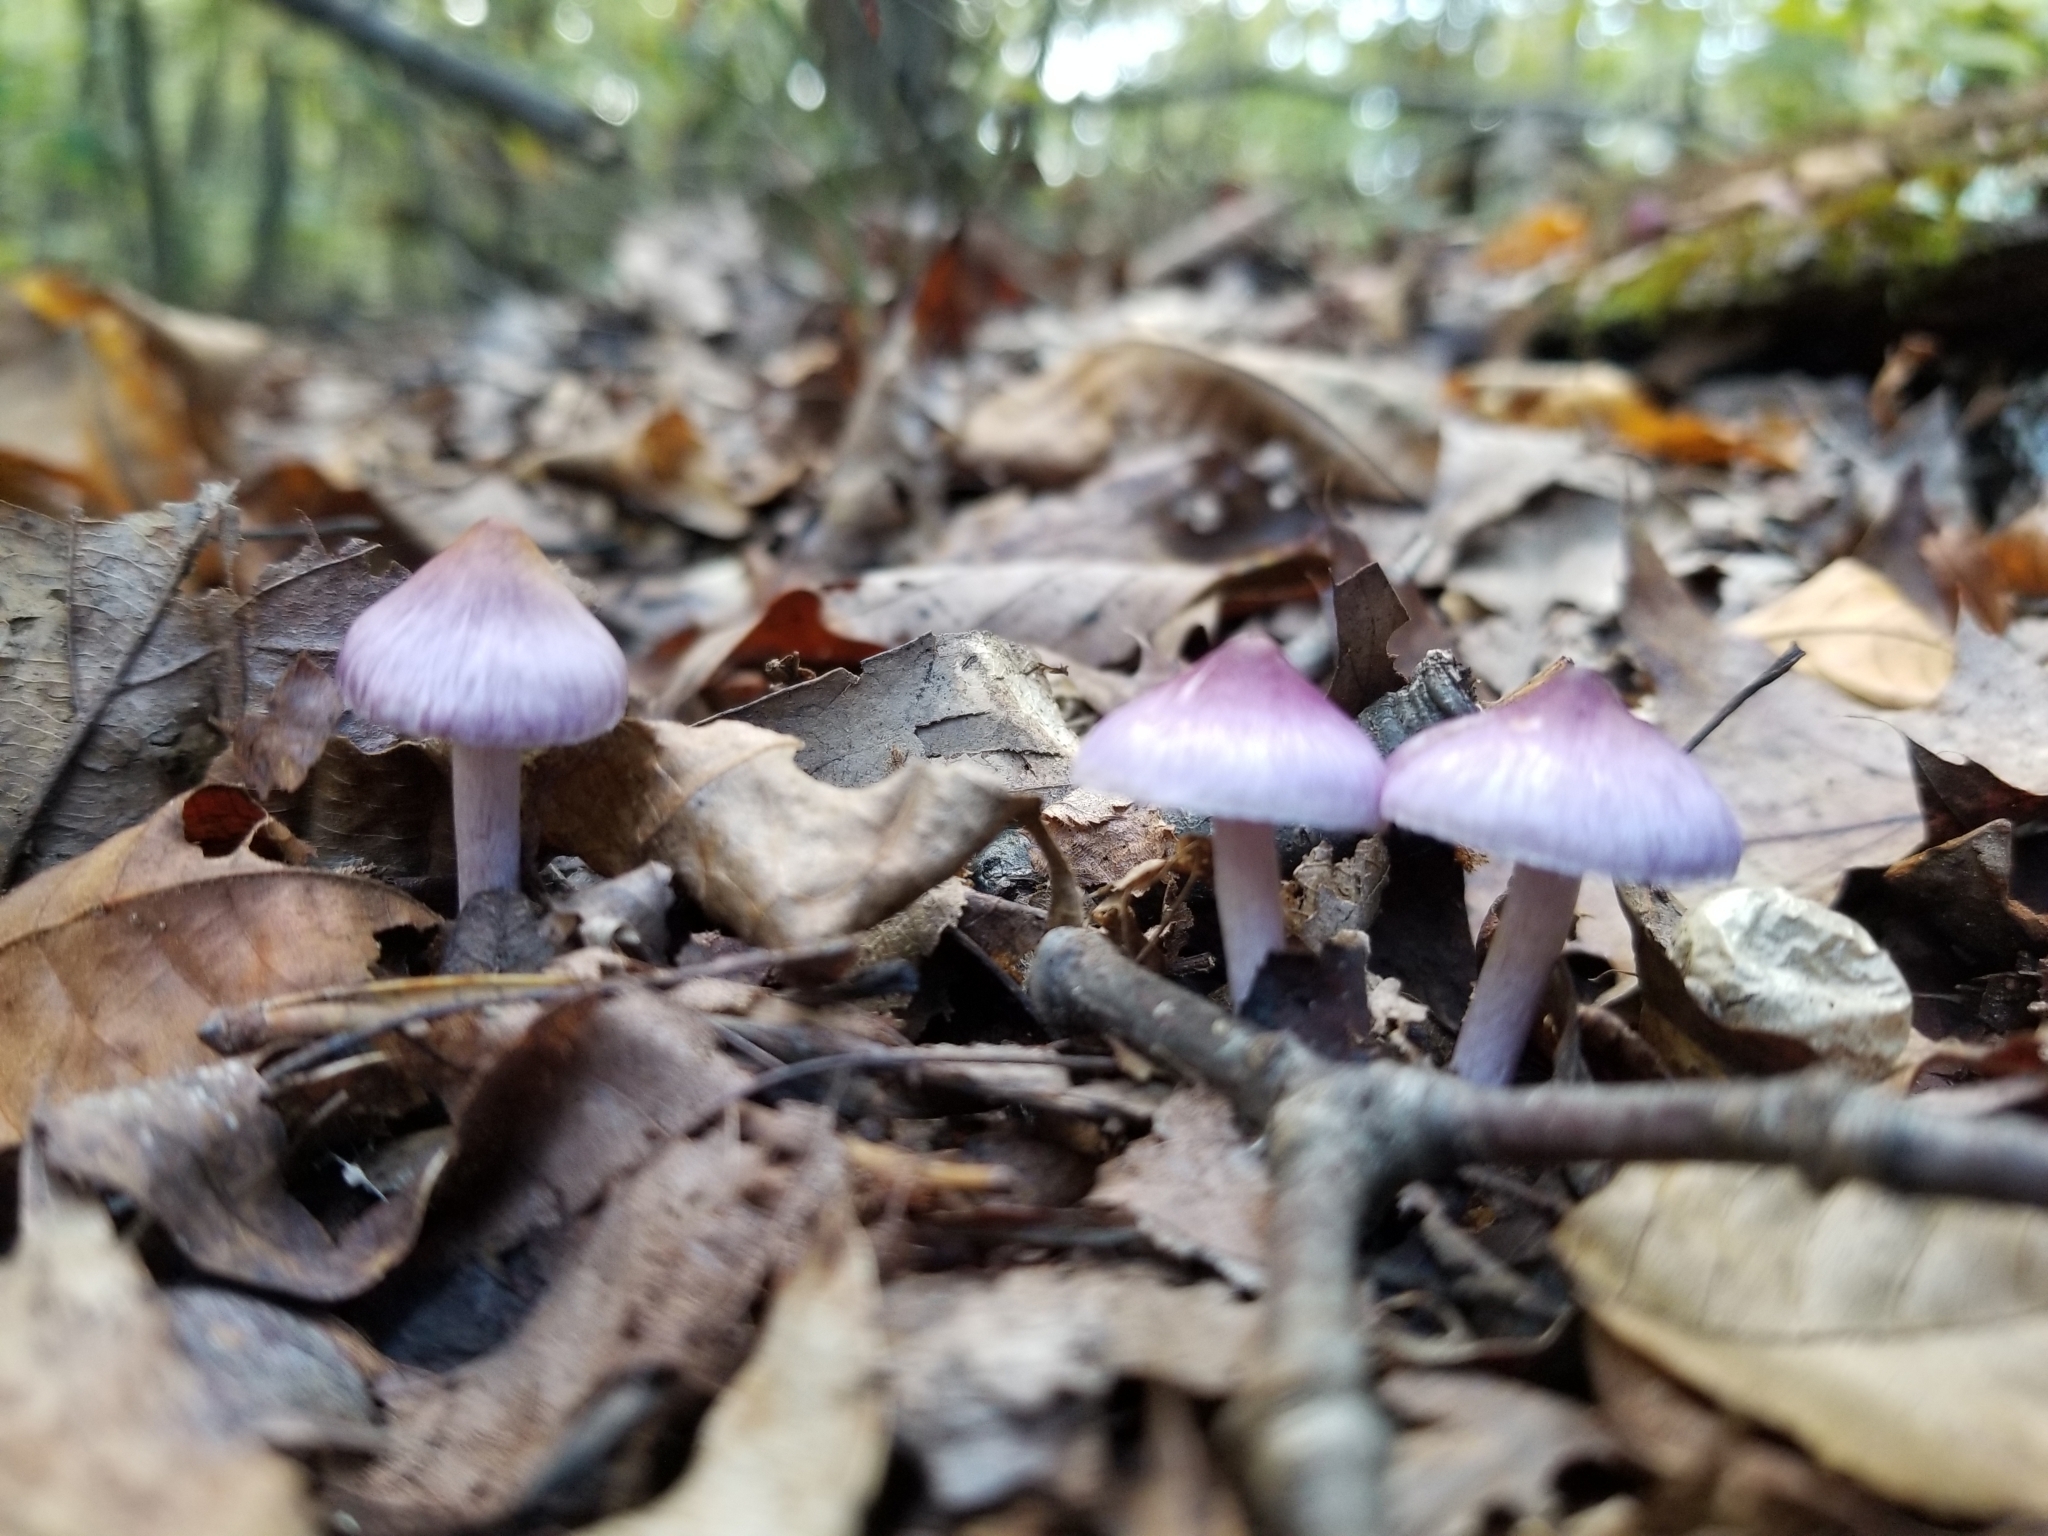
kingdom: Fungi
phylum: Basidiomycota
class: Agaricomycetes
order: Agaricales
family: Inocybaceae
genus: Inocybe
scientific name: Inocybe geophylla
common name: White fibrecap
